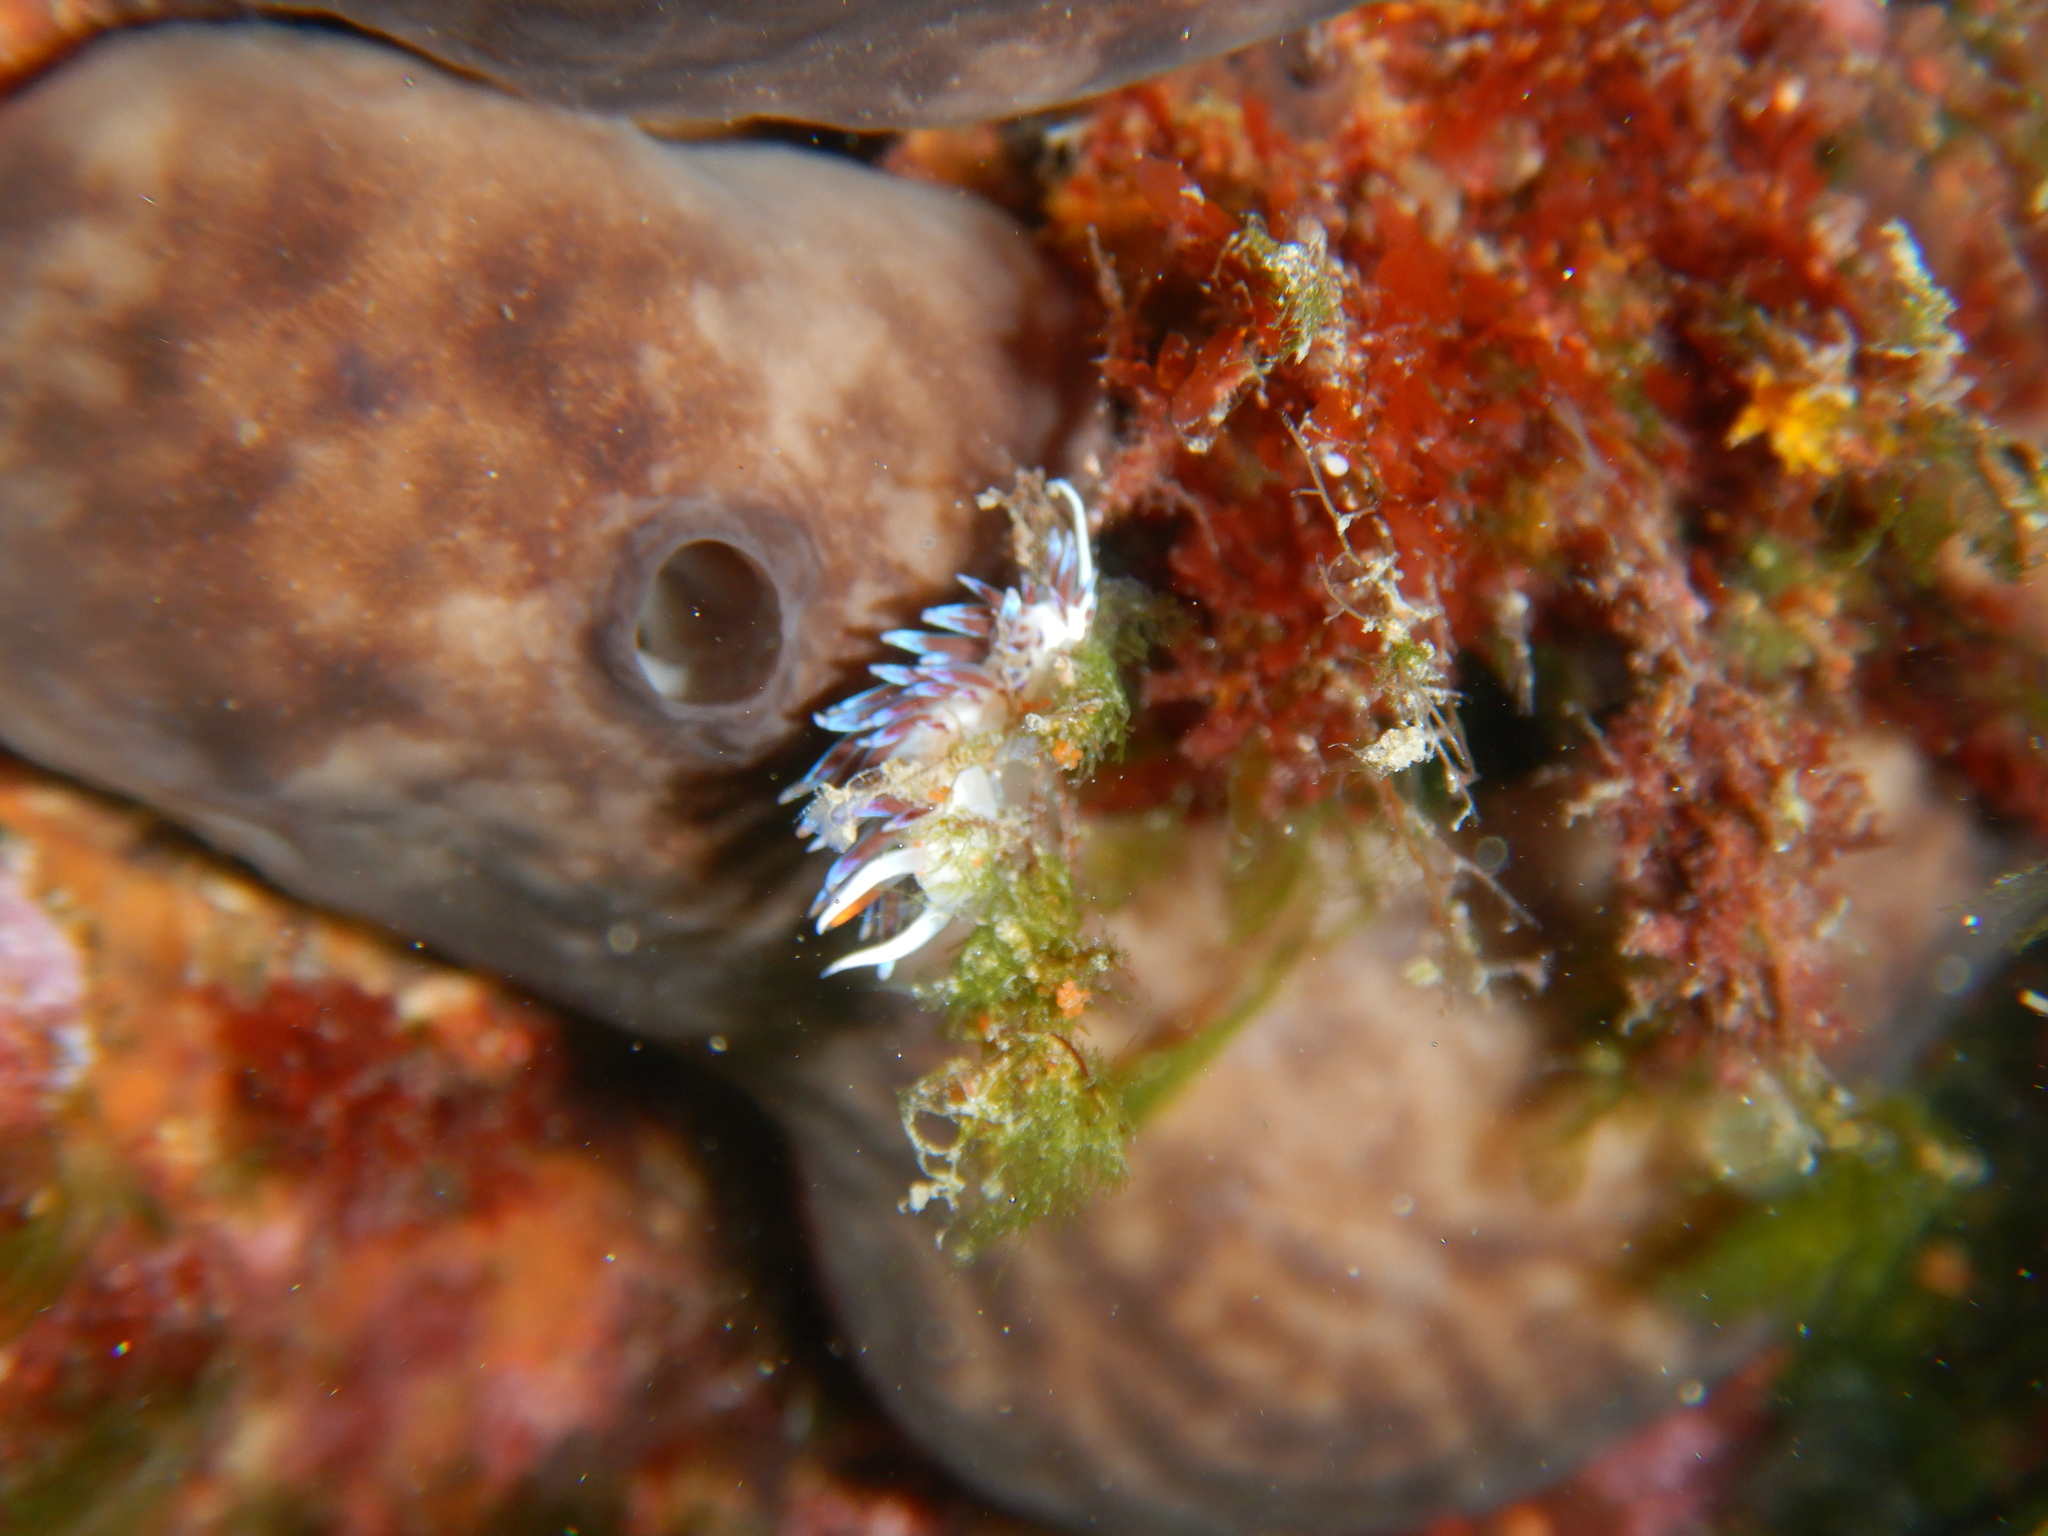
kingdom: Animalia
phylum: Mollusca
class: Gastropoda
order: Nudibranchia
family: Facelinidae
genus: Cratena
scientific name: Cratena peregrina
